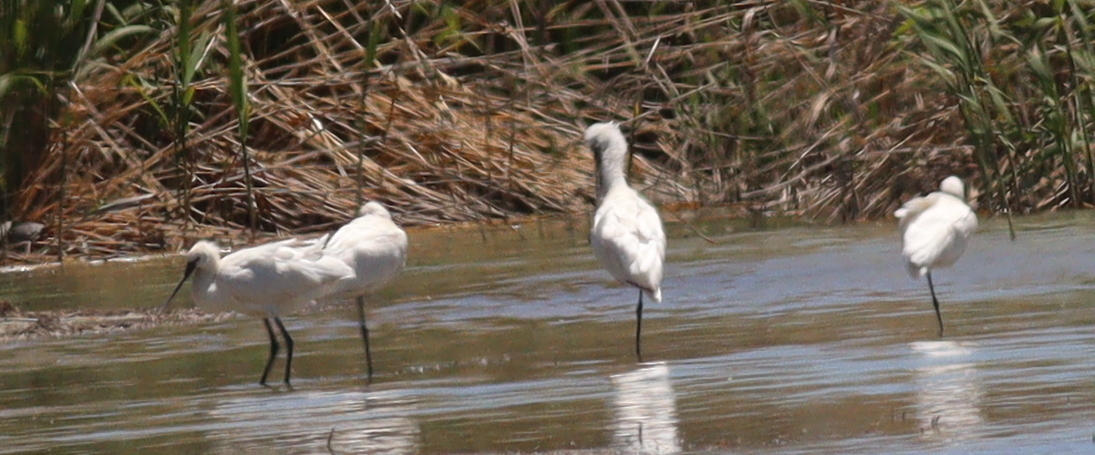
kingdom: Animalia
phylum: Chordata
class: Aves
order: Pelecaniformes
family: Threskiornithidae
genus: Platalea
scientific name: Platalea leucorodia
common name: Eurasian spoonbill
